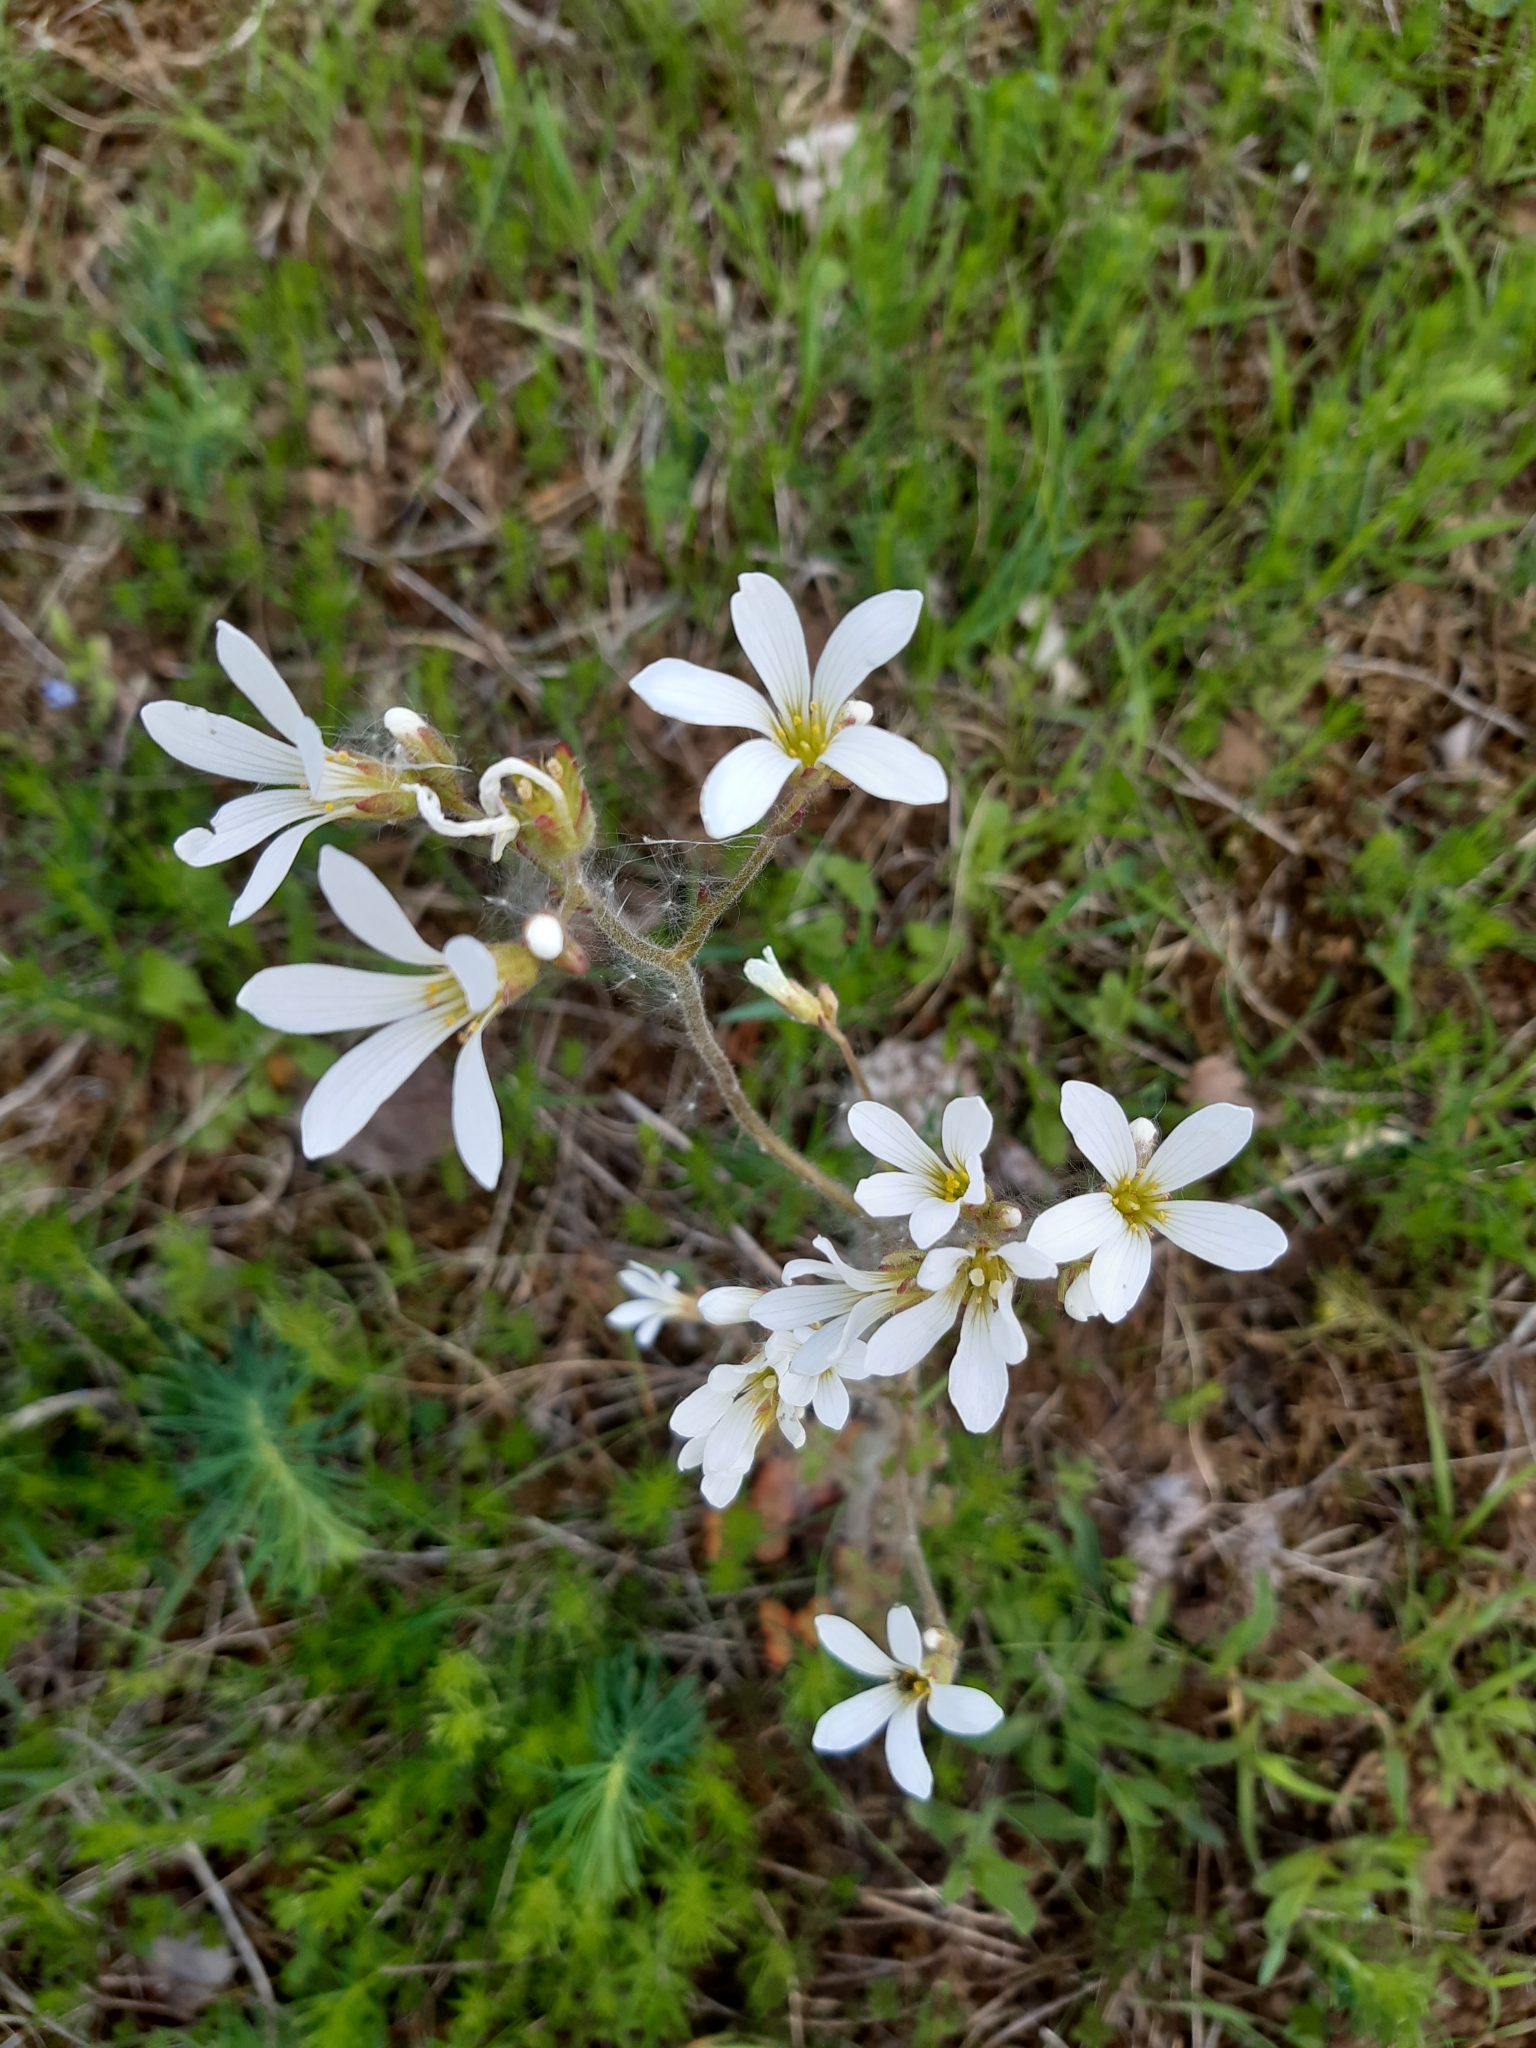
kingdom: Plantae
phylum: Tracheophyta
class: Magnoliopsida
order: Saxifragales
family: Saxifragaceae
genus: Saxifraga
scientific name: Saxifraga granulata
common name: Meadow saxifrage
